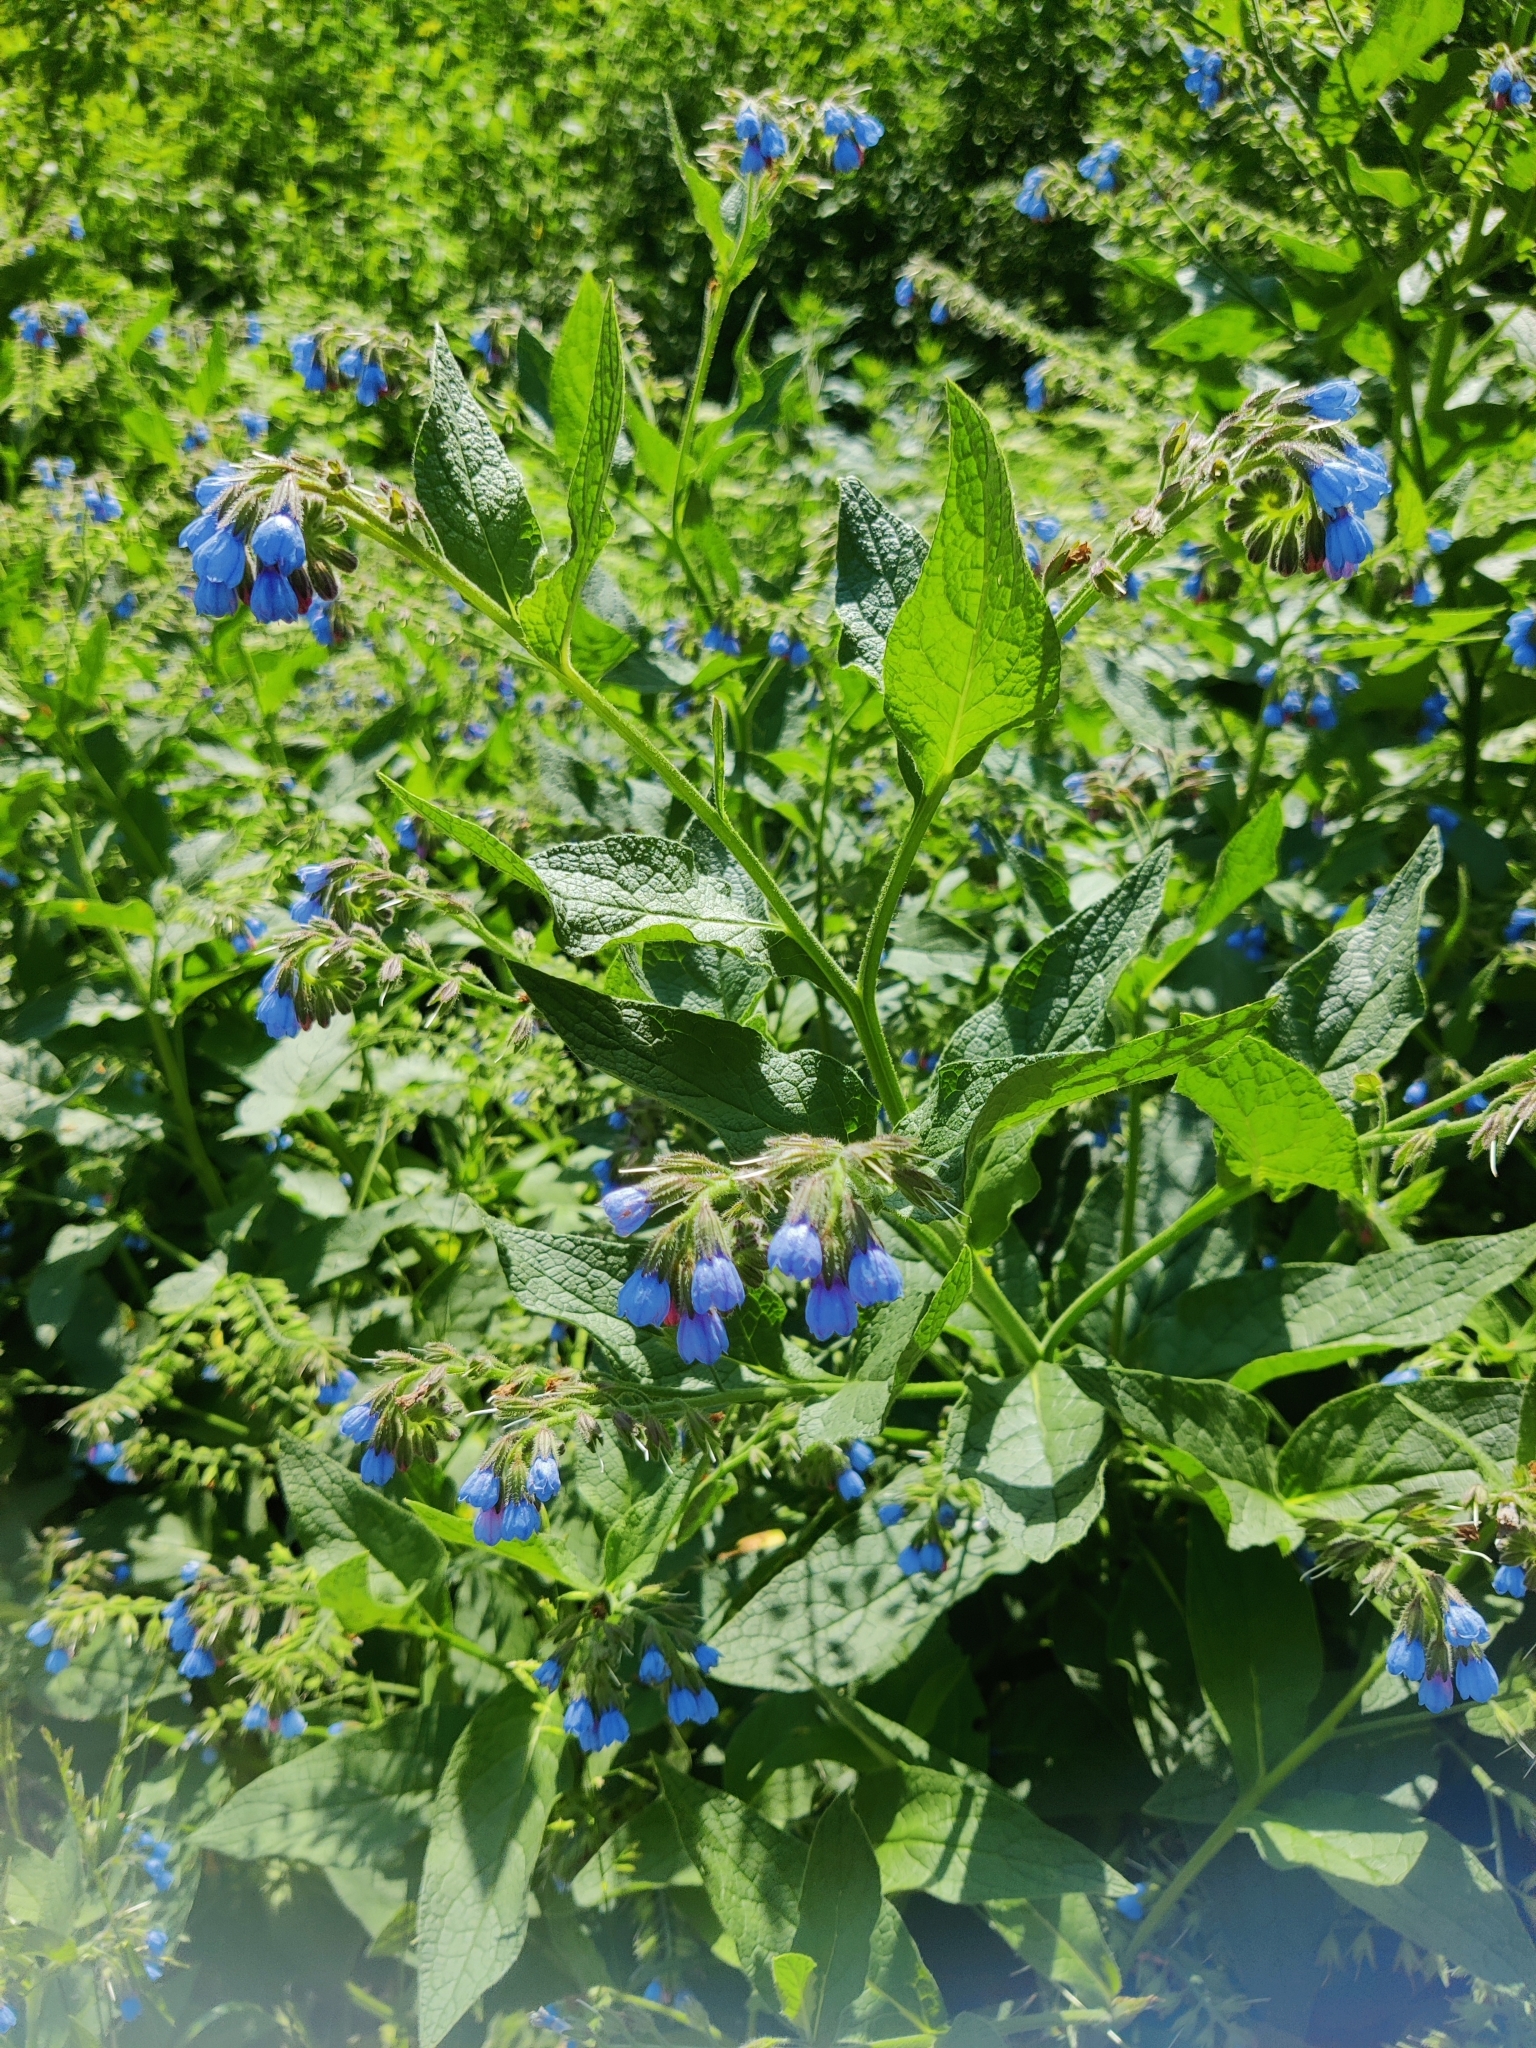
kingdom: Plantae
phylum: Tracheophyta
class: Magnoliopsida
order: Boraginales
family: Boraginaceae
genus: Symphytum
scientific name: Symphytum caucasicum
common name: Caucasian comfrey
